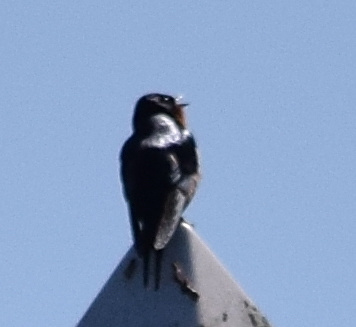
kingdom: Animalia
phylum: Chordata
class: Aves
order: Passeriformes
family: Hirundinidae
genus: Hirundo
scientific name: Hirundo rustica
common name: Barn swallow
